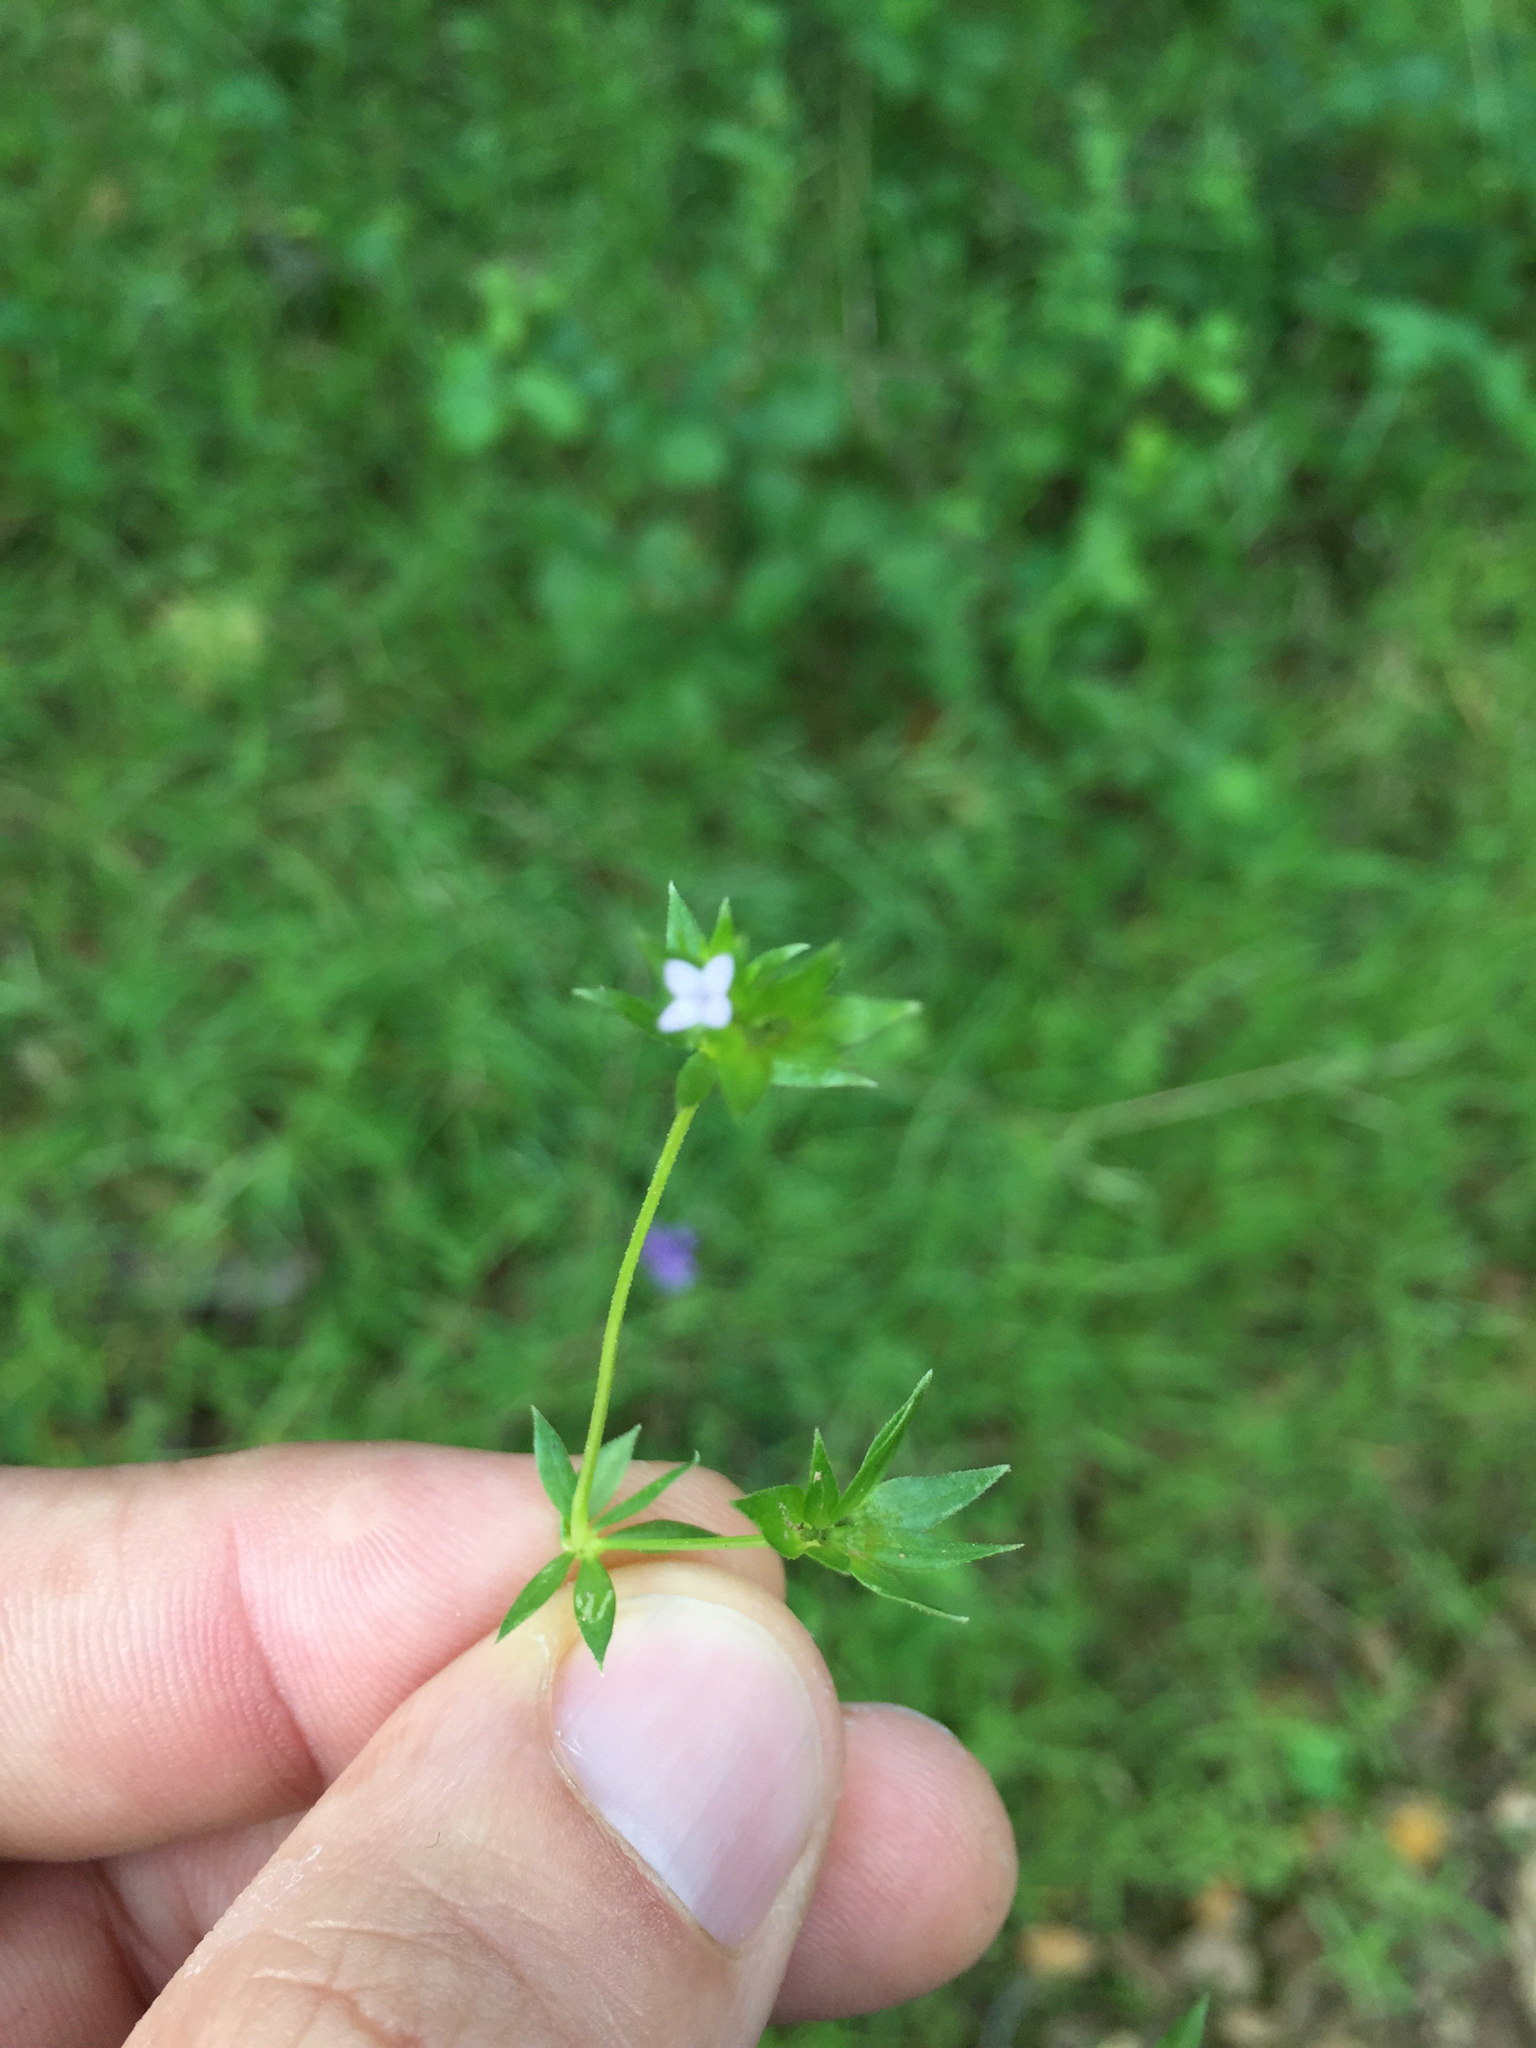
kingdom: Plantae
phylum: Tracheophyta
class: Magnoliopsida
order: Gentianales
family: Rubiaceae
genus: Sherardia
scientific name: Sherardia arvensis
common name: Field madder
